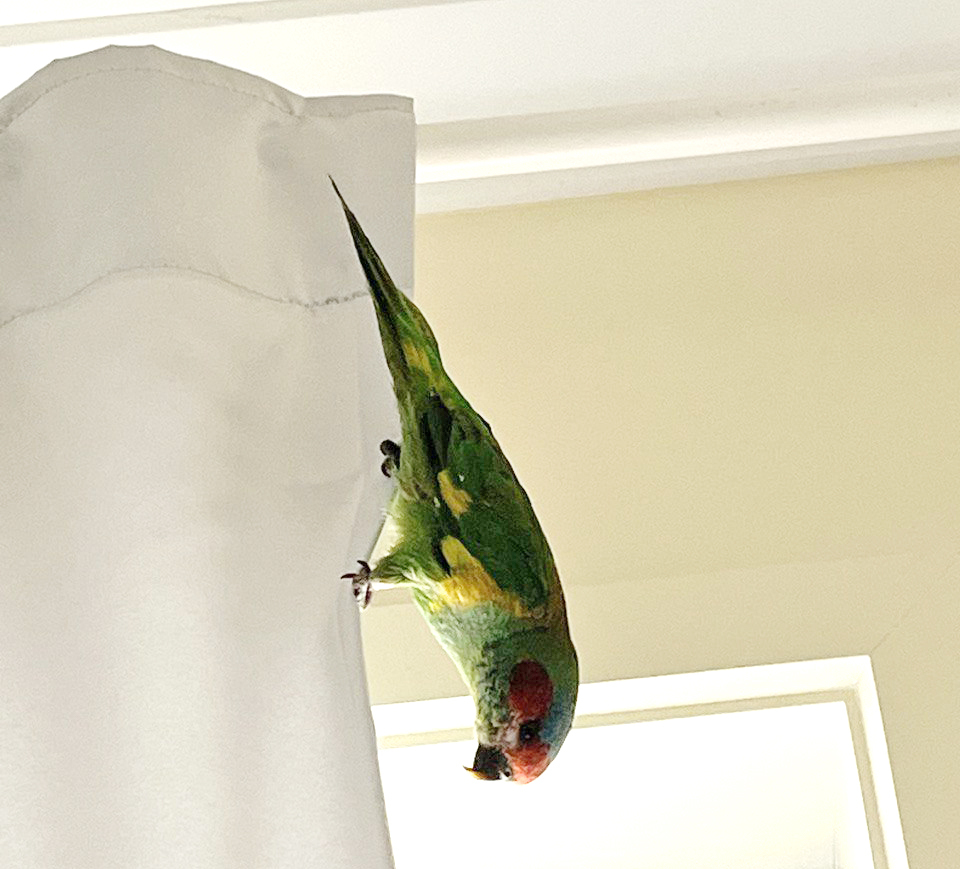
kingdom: Animalia
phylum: Chordata
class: Aves
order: Psittaciformes
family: Psittacidae
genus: Glossopsitta
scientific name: Glossopsitta concinna
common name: Musk lorikeet
